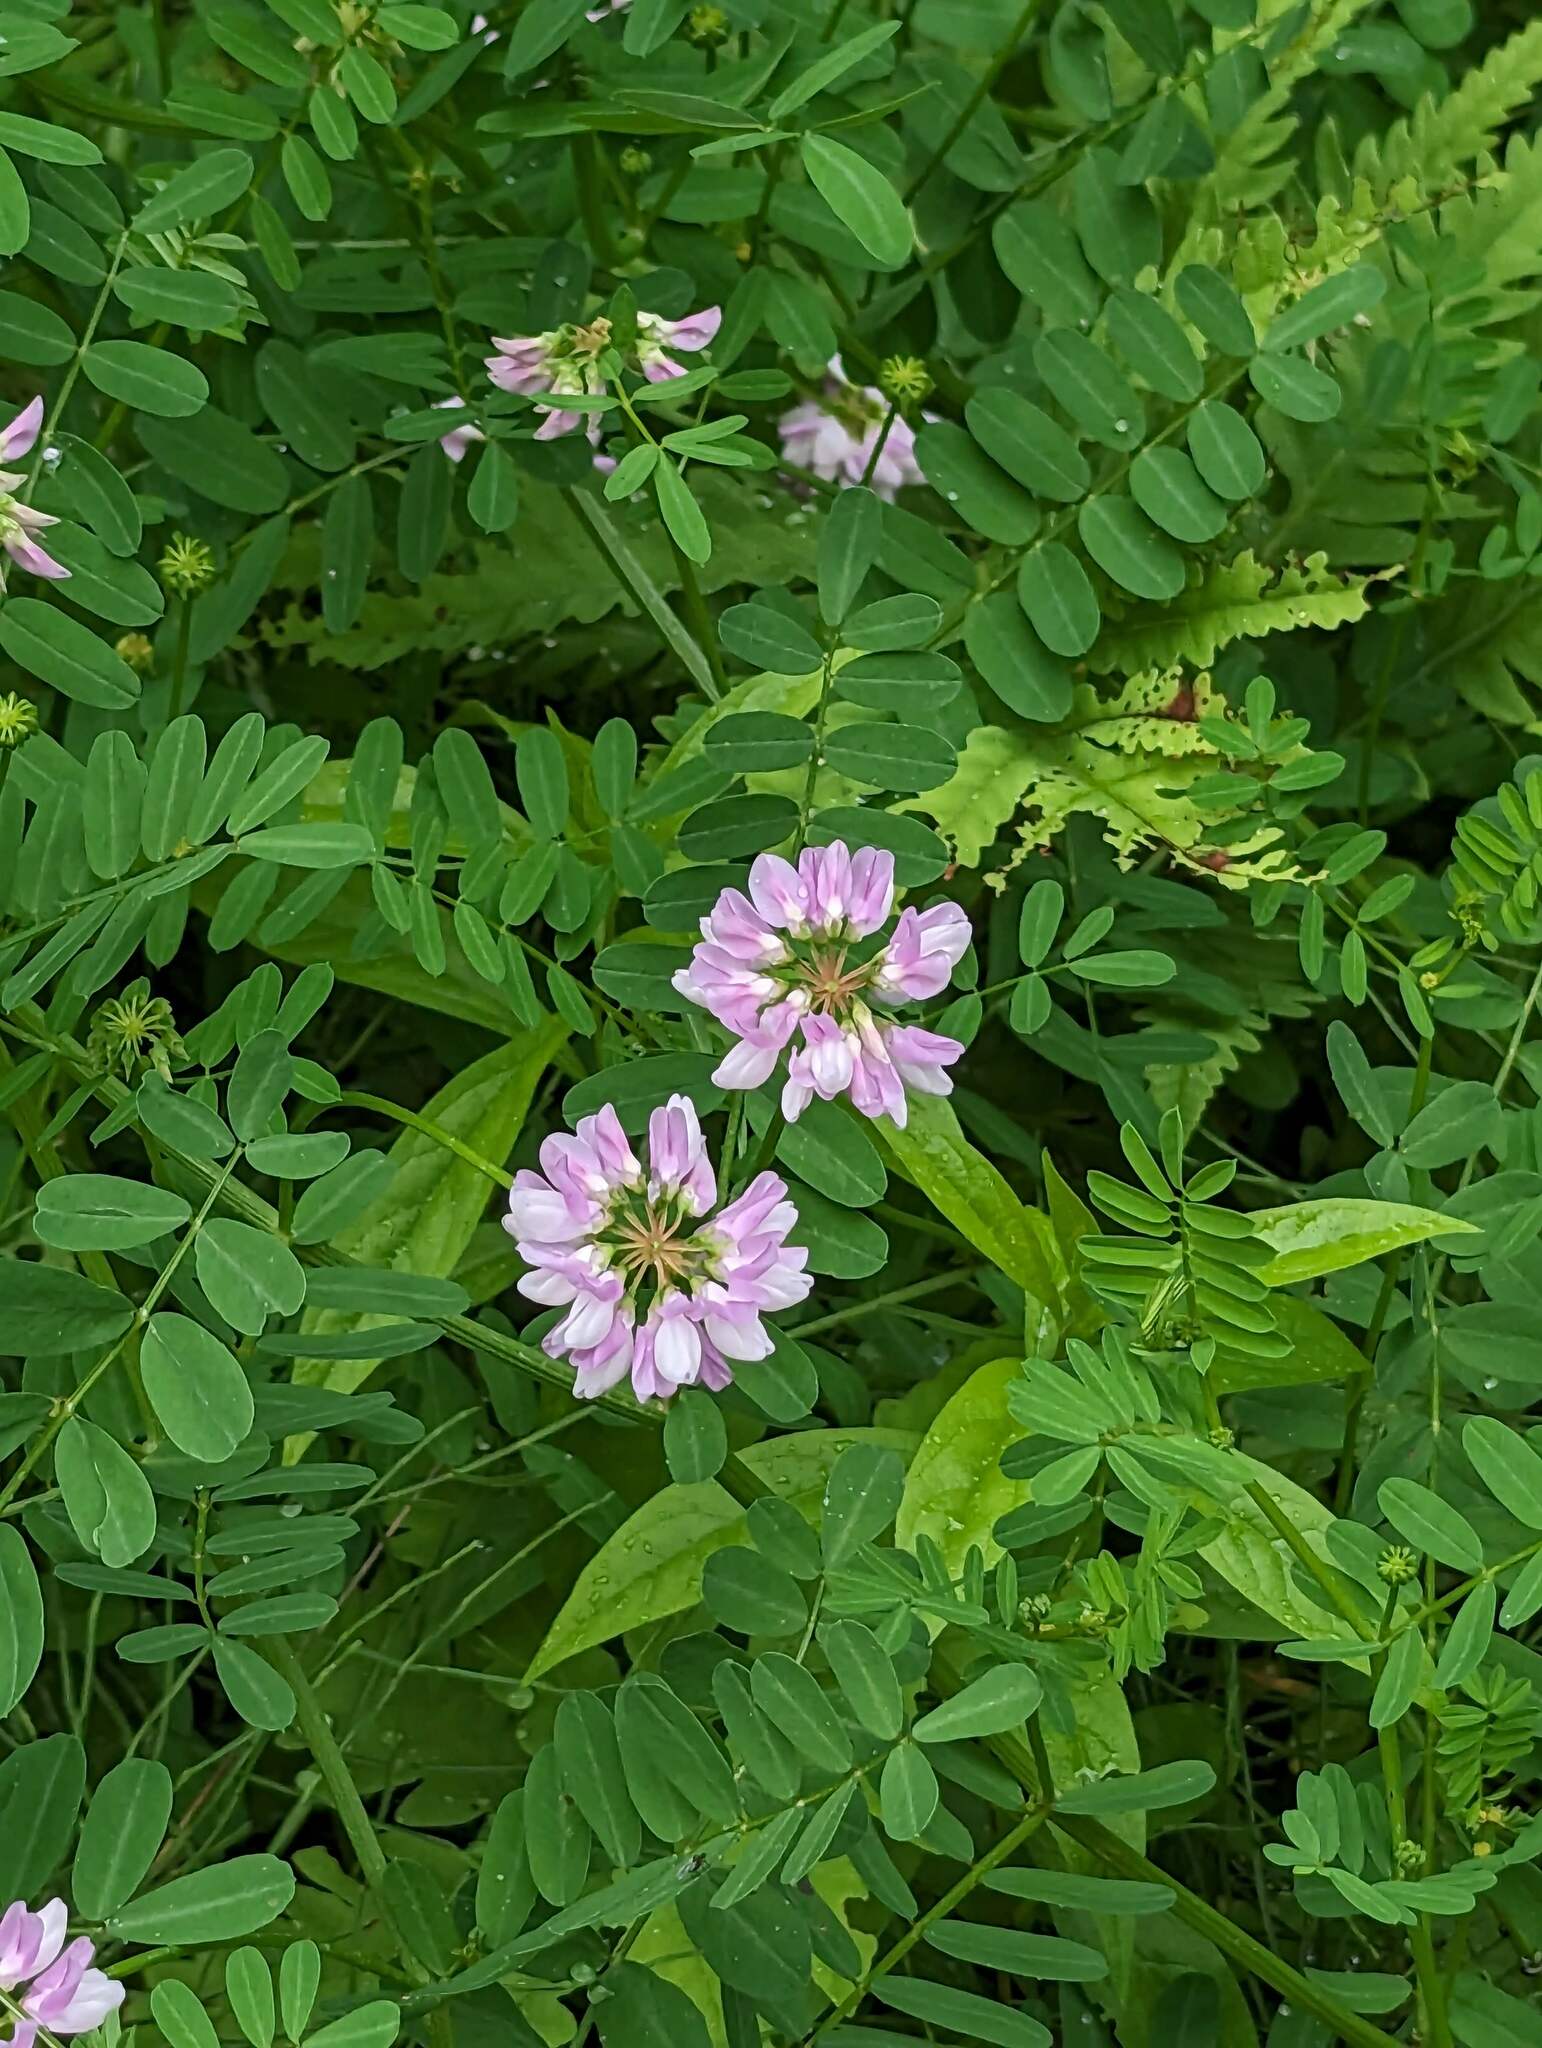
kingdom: Plantae
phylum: Tracheophyta
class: Magnoliopsida
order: Fabales
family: Fabaceae
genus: Coronilla
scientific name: Coronilla varia
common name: Crownvetch
